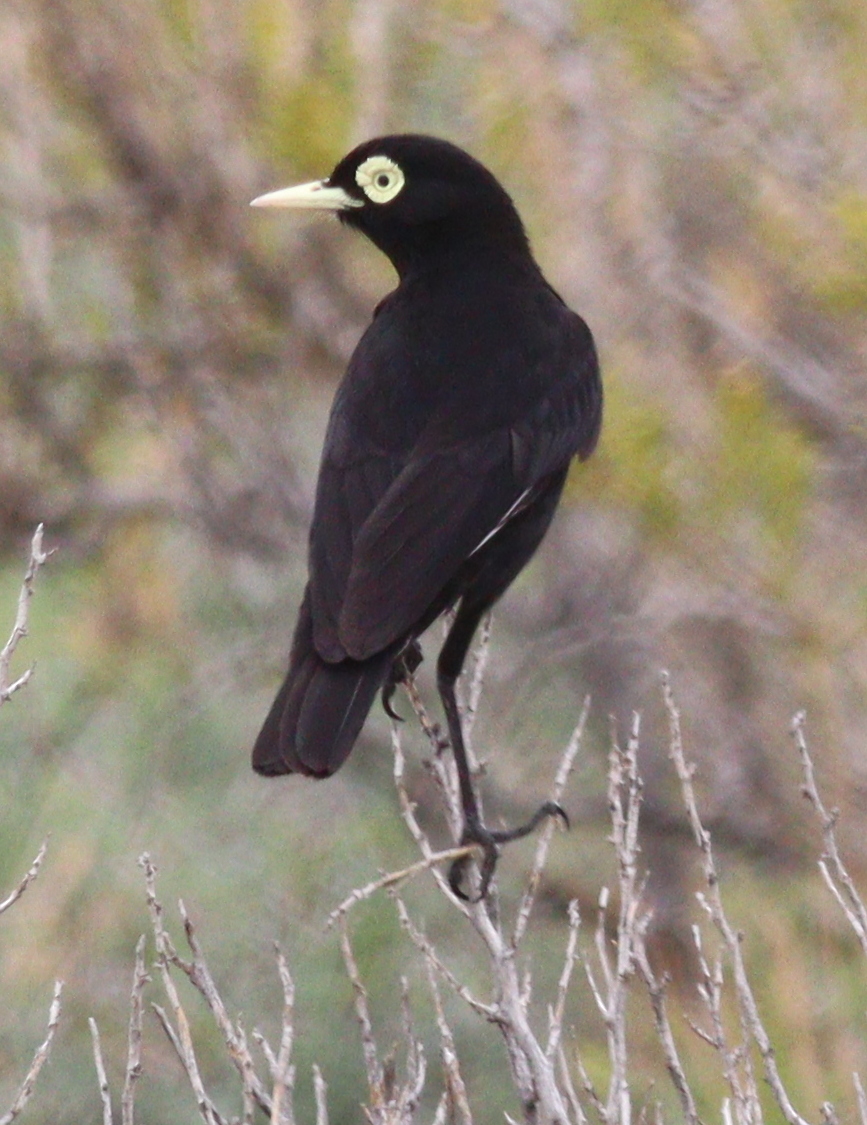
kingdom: Animalia
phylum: Chordata
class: Aves
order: Passeriformes
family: Tyrannidae
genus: Hymenops
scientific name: Hymenops perspicillatus
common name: Spectacled tyrant
